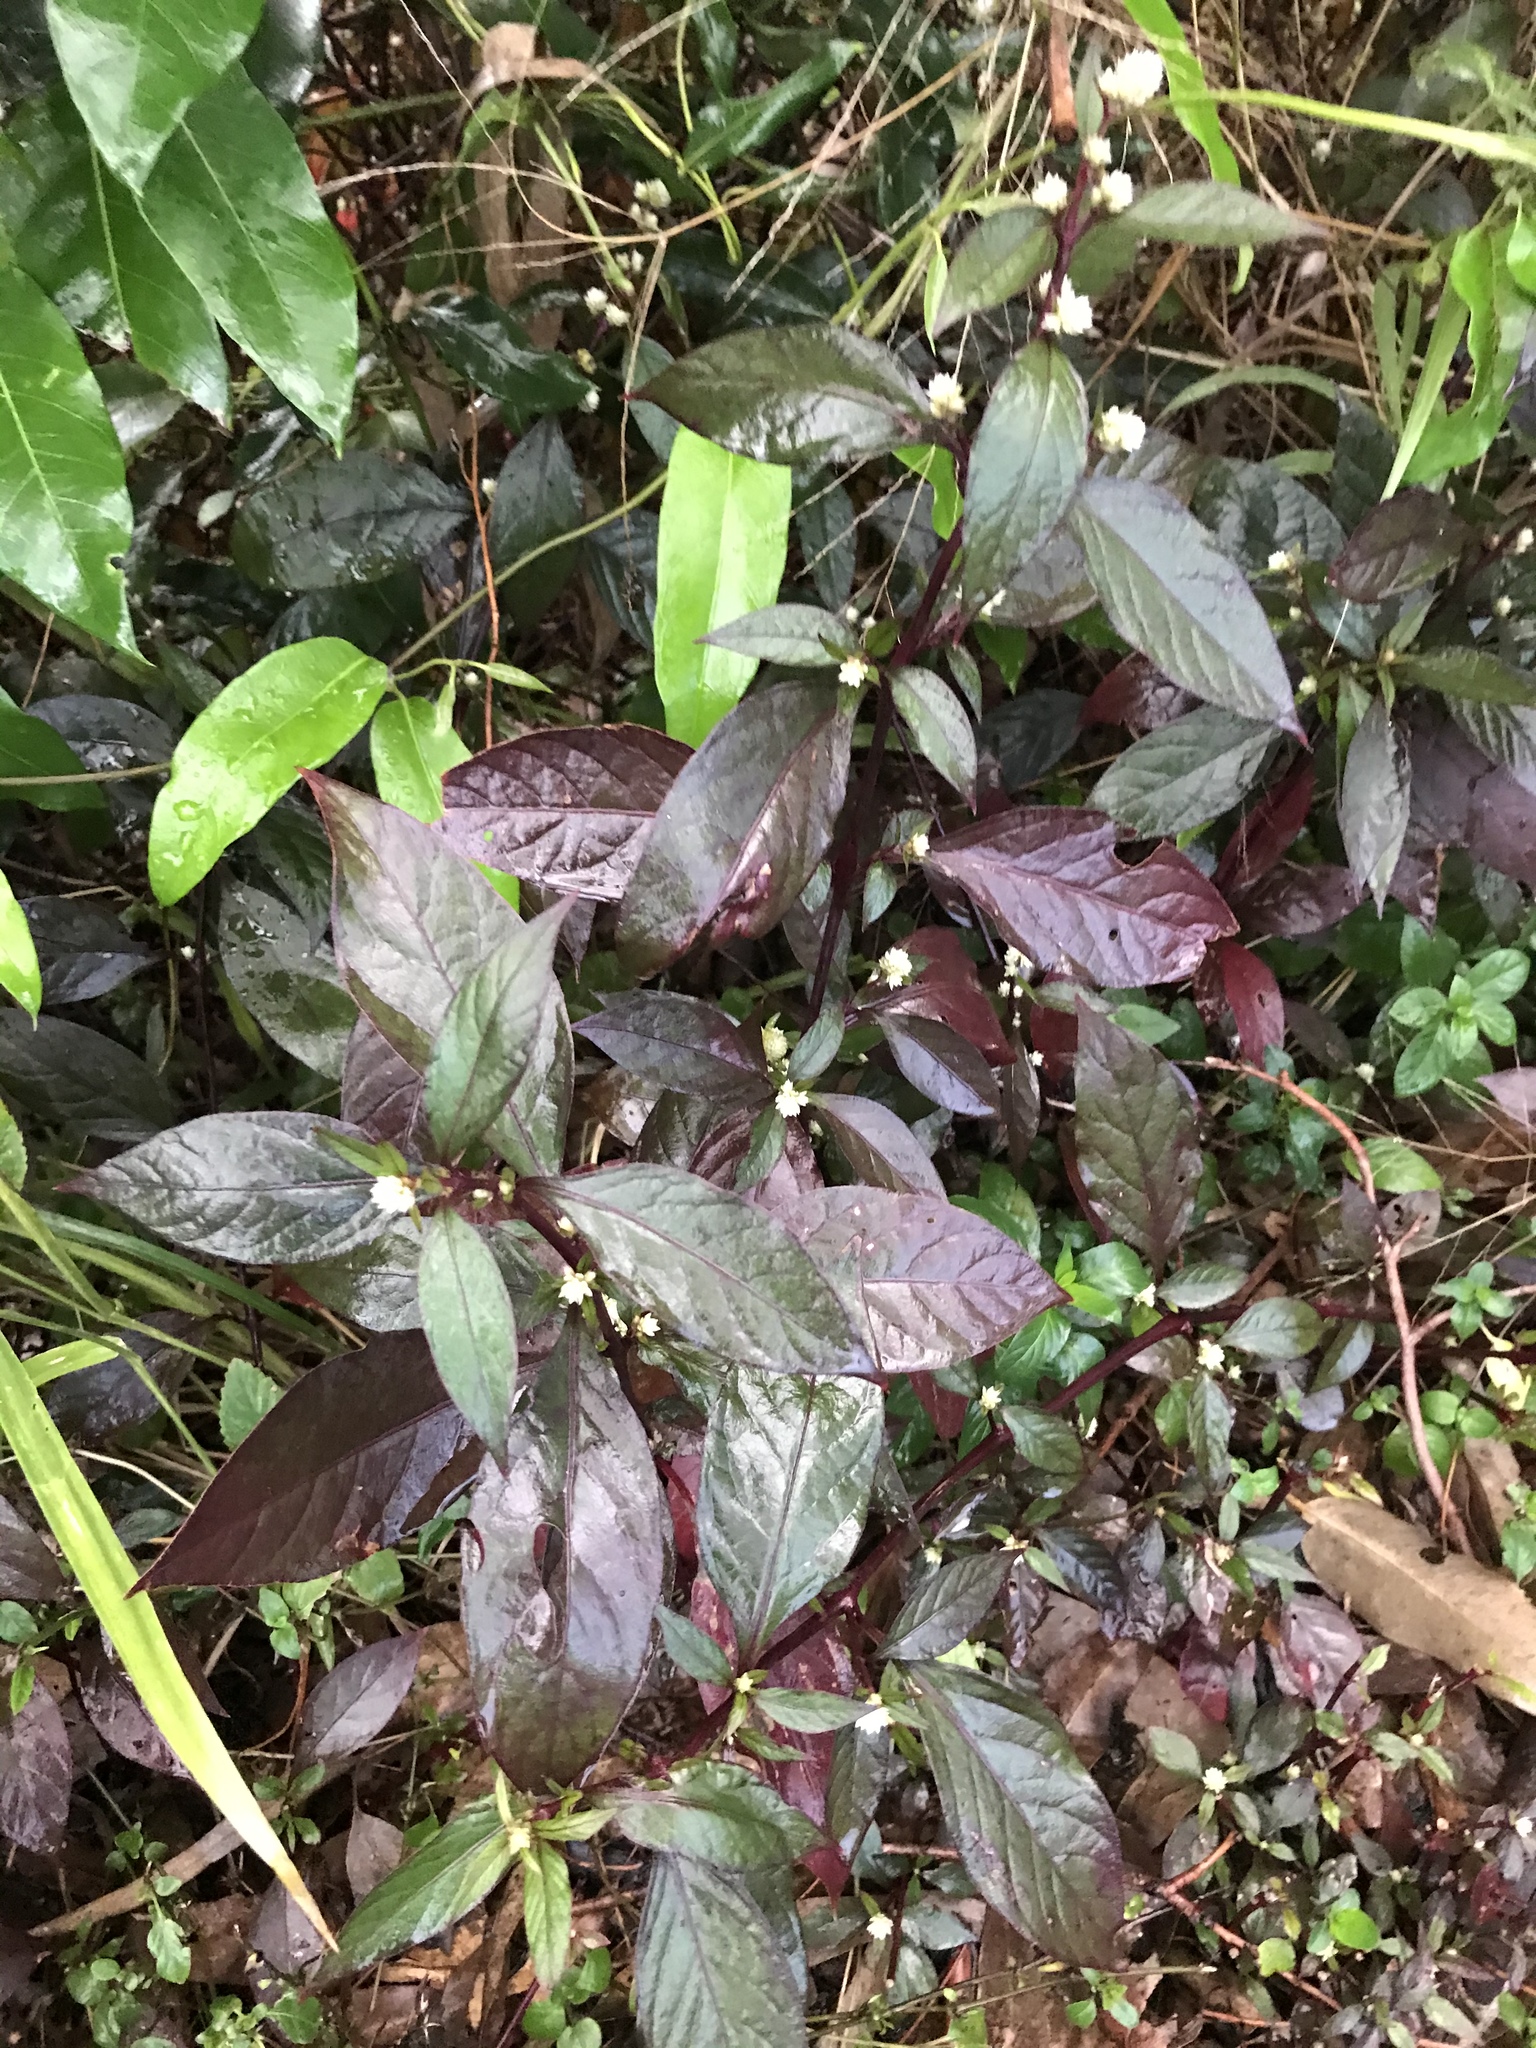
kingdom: Plantae
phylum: Tracheophyta
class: Magnoliopsida
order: Caryophyllales
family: Amaranthaceae
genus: Alternanthera
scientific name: Alternanthera brasiliana
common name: Brazilian joyweed
